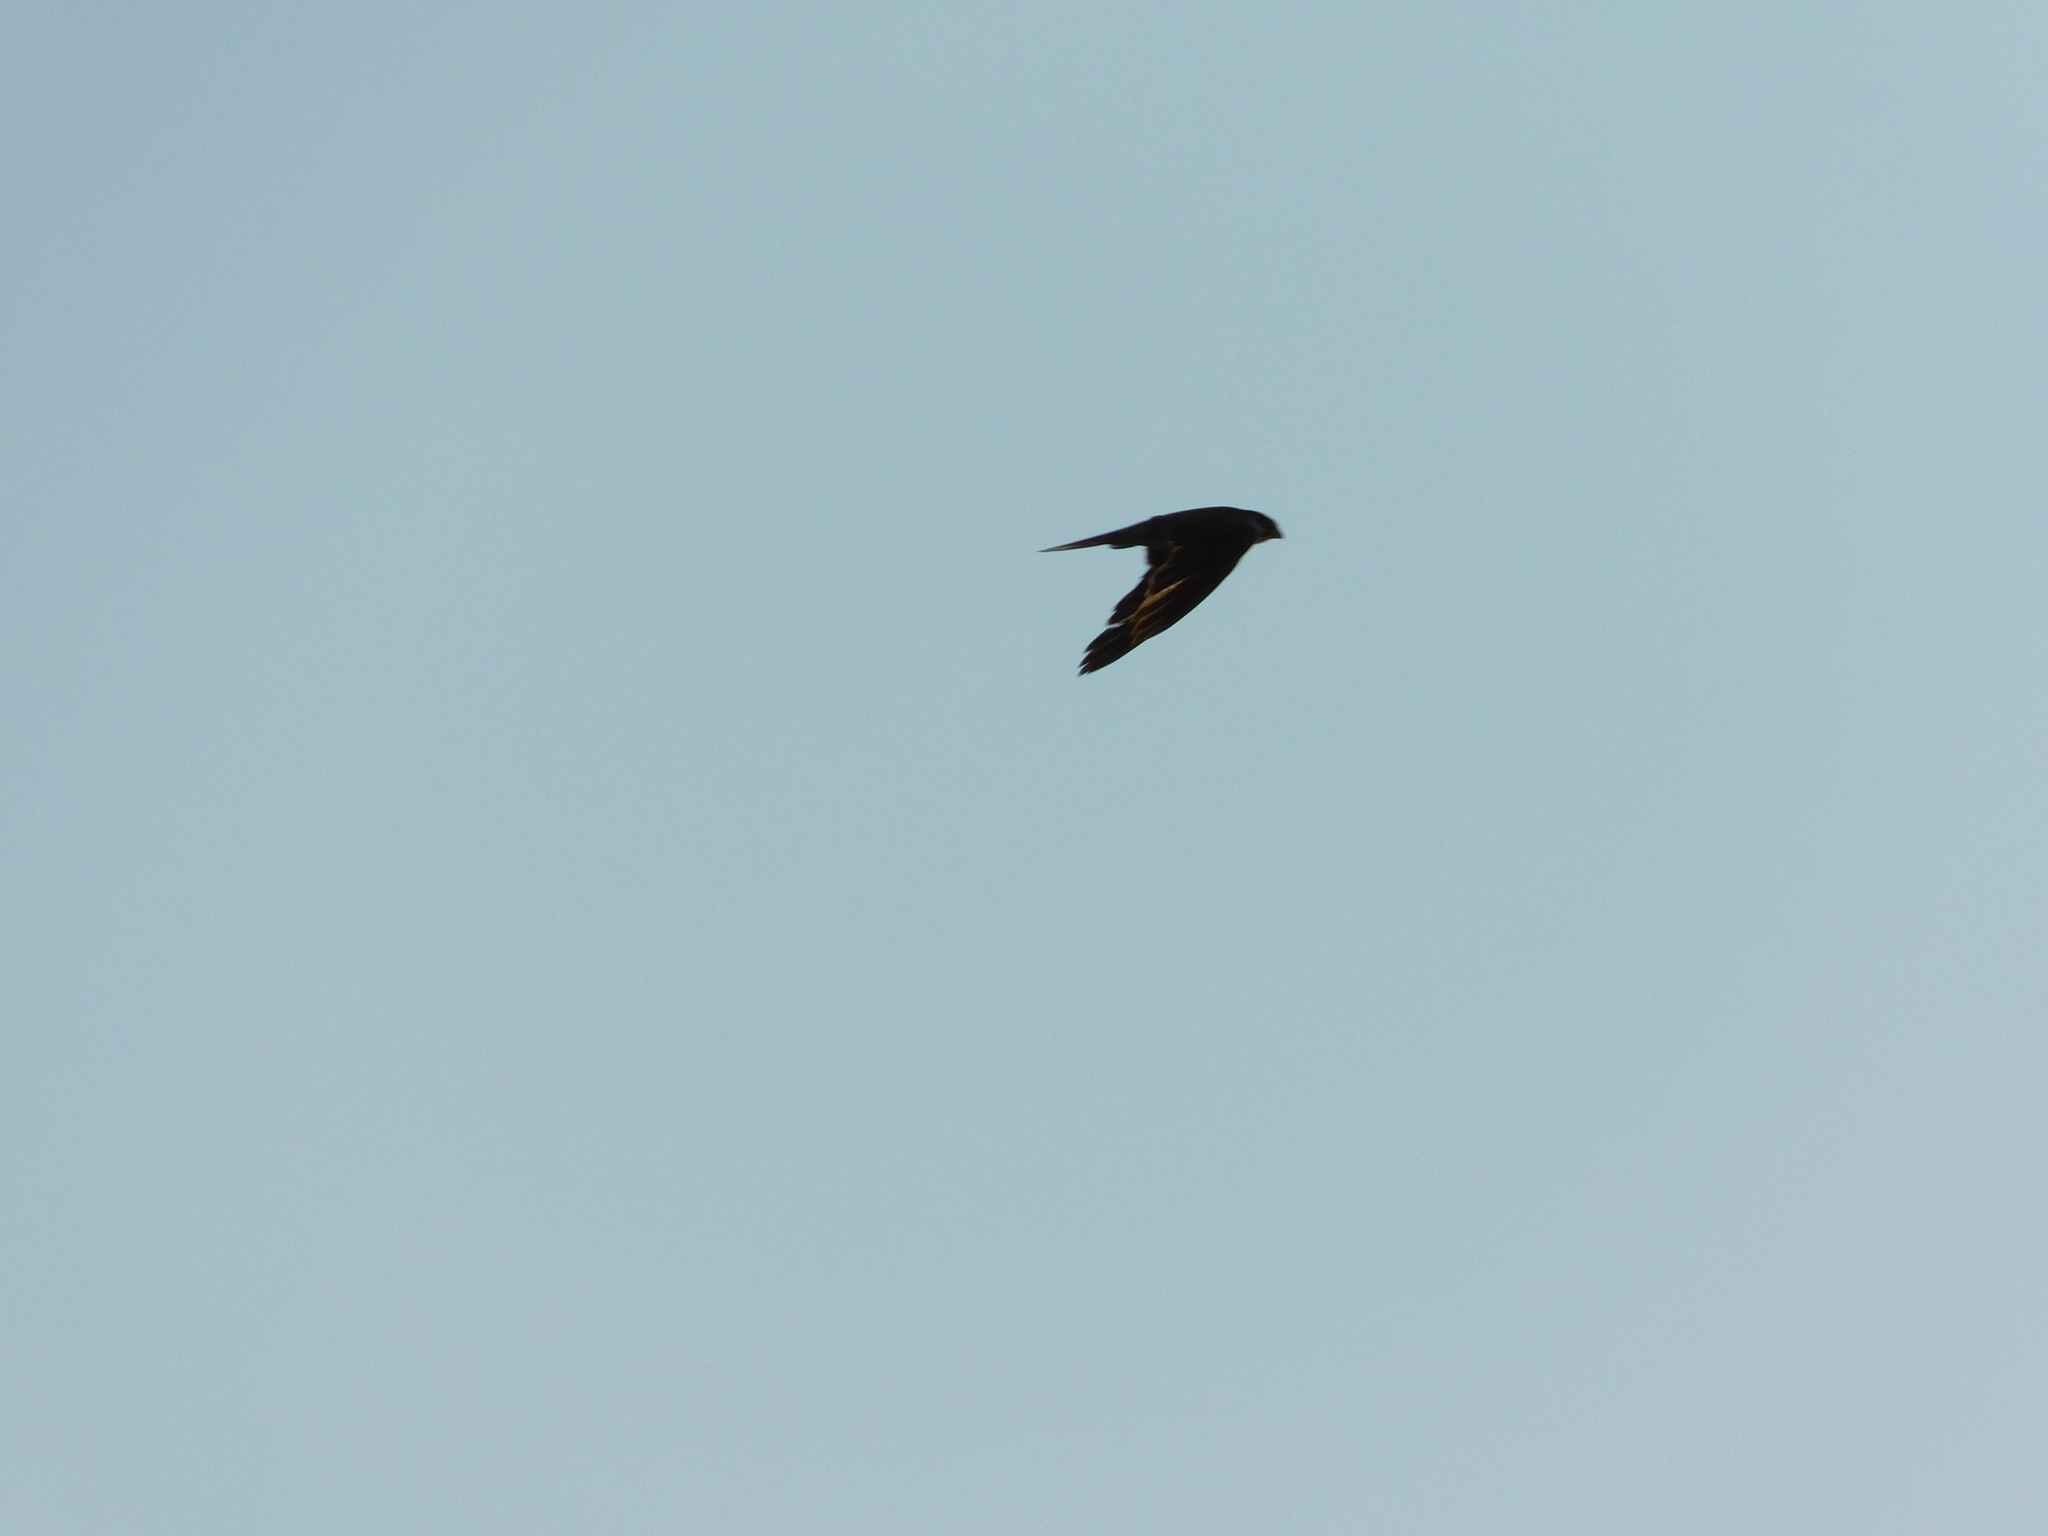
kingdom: Animalia
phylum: Chordata
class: Aves
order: Falconiformes
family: Falconidae
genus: Falco
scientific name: Falco subbuteo
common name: Eurasian hobby
